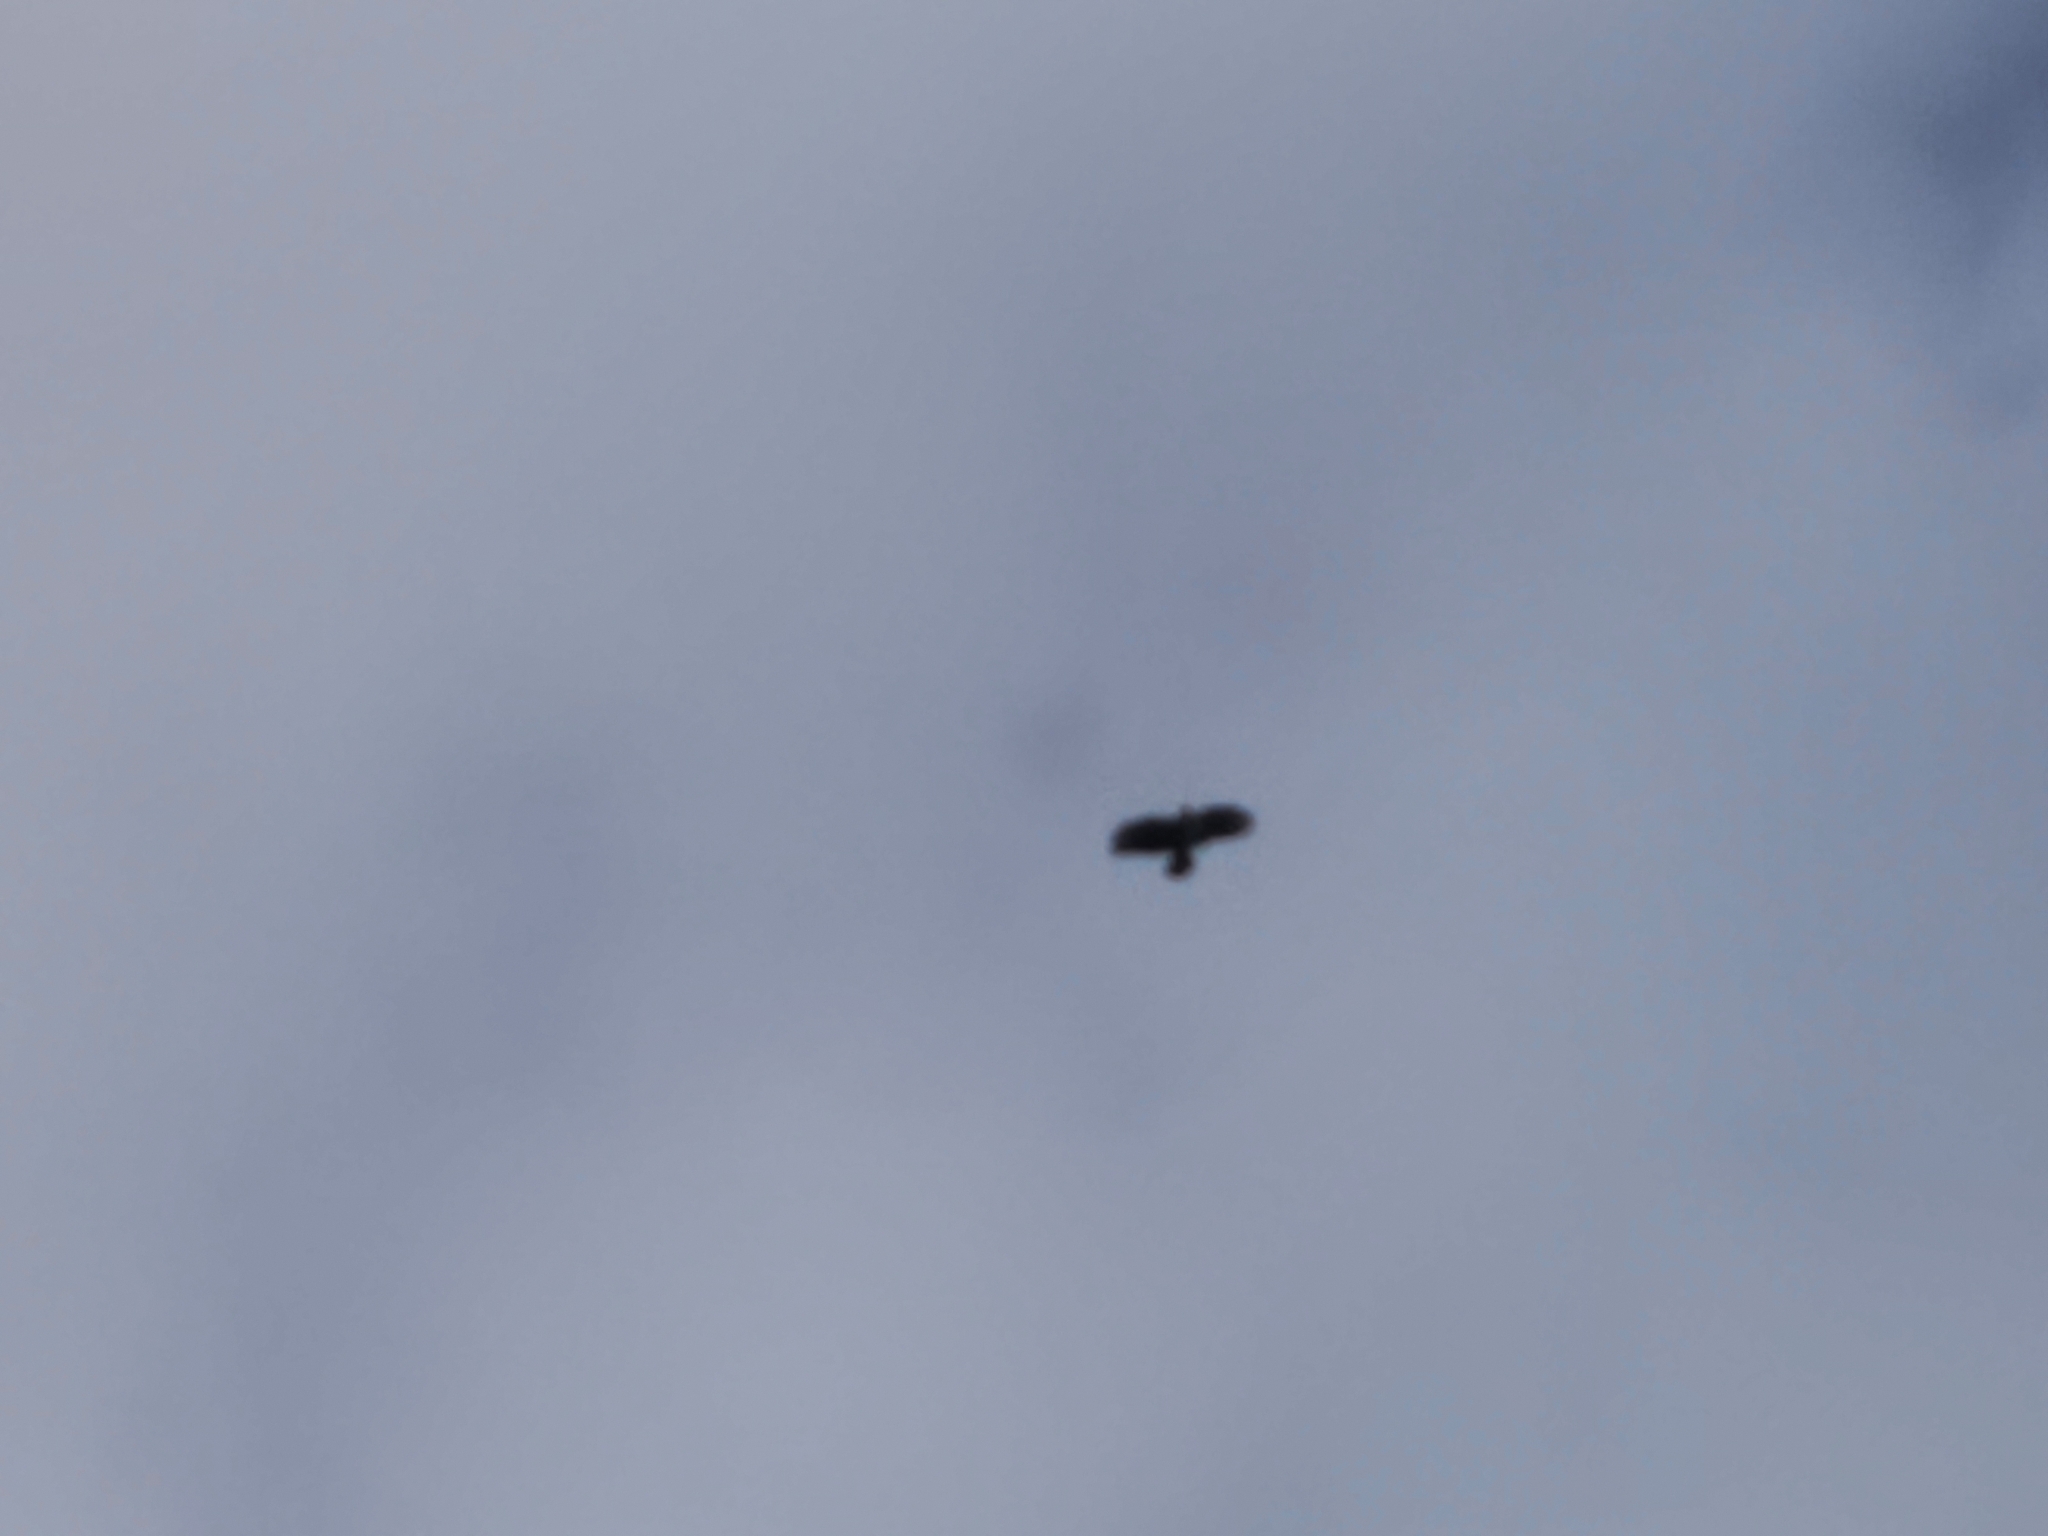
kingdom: Animalia
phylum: Chordata
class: Aves
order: Accipitriformes
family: Accipitridae
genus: Buteo
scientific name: Buteo buteo
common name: Common buzzard
